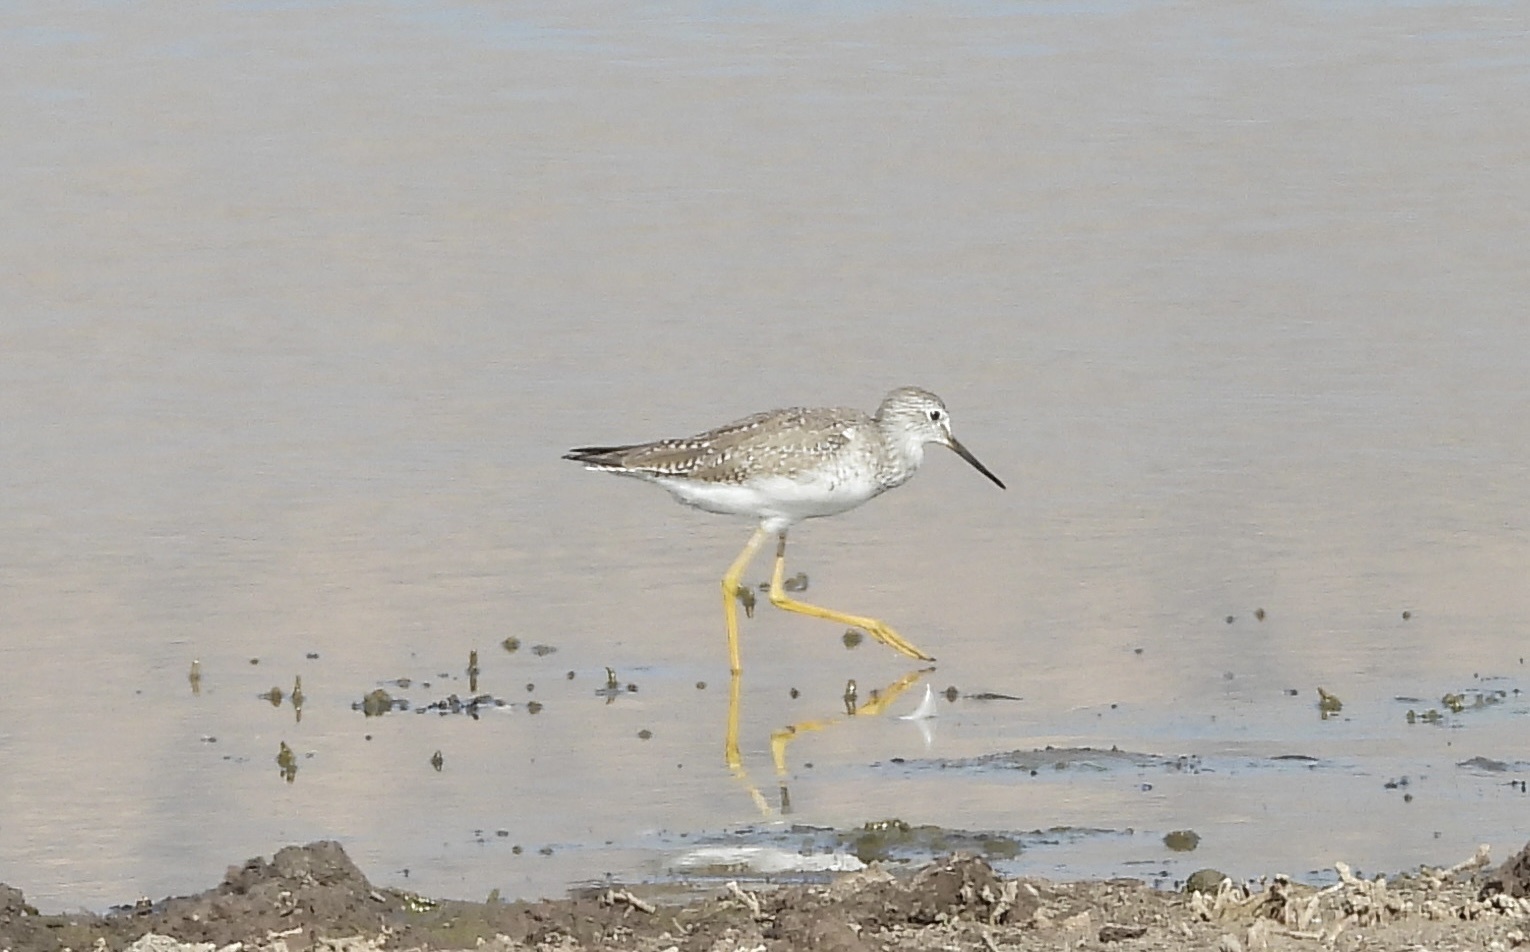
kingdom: Animalia
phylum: Chordata
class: Aves
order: Charadriiformes
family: Scolopacidae
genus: Tringa
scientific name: Tringa melanoleuca
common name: Greater yellowlegs
